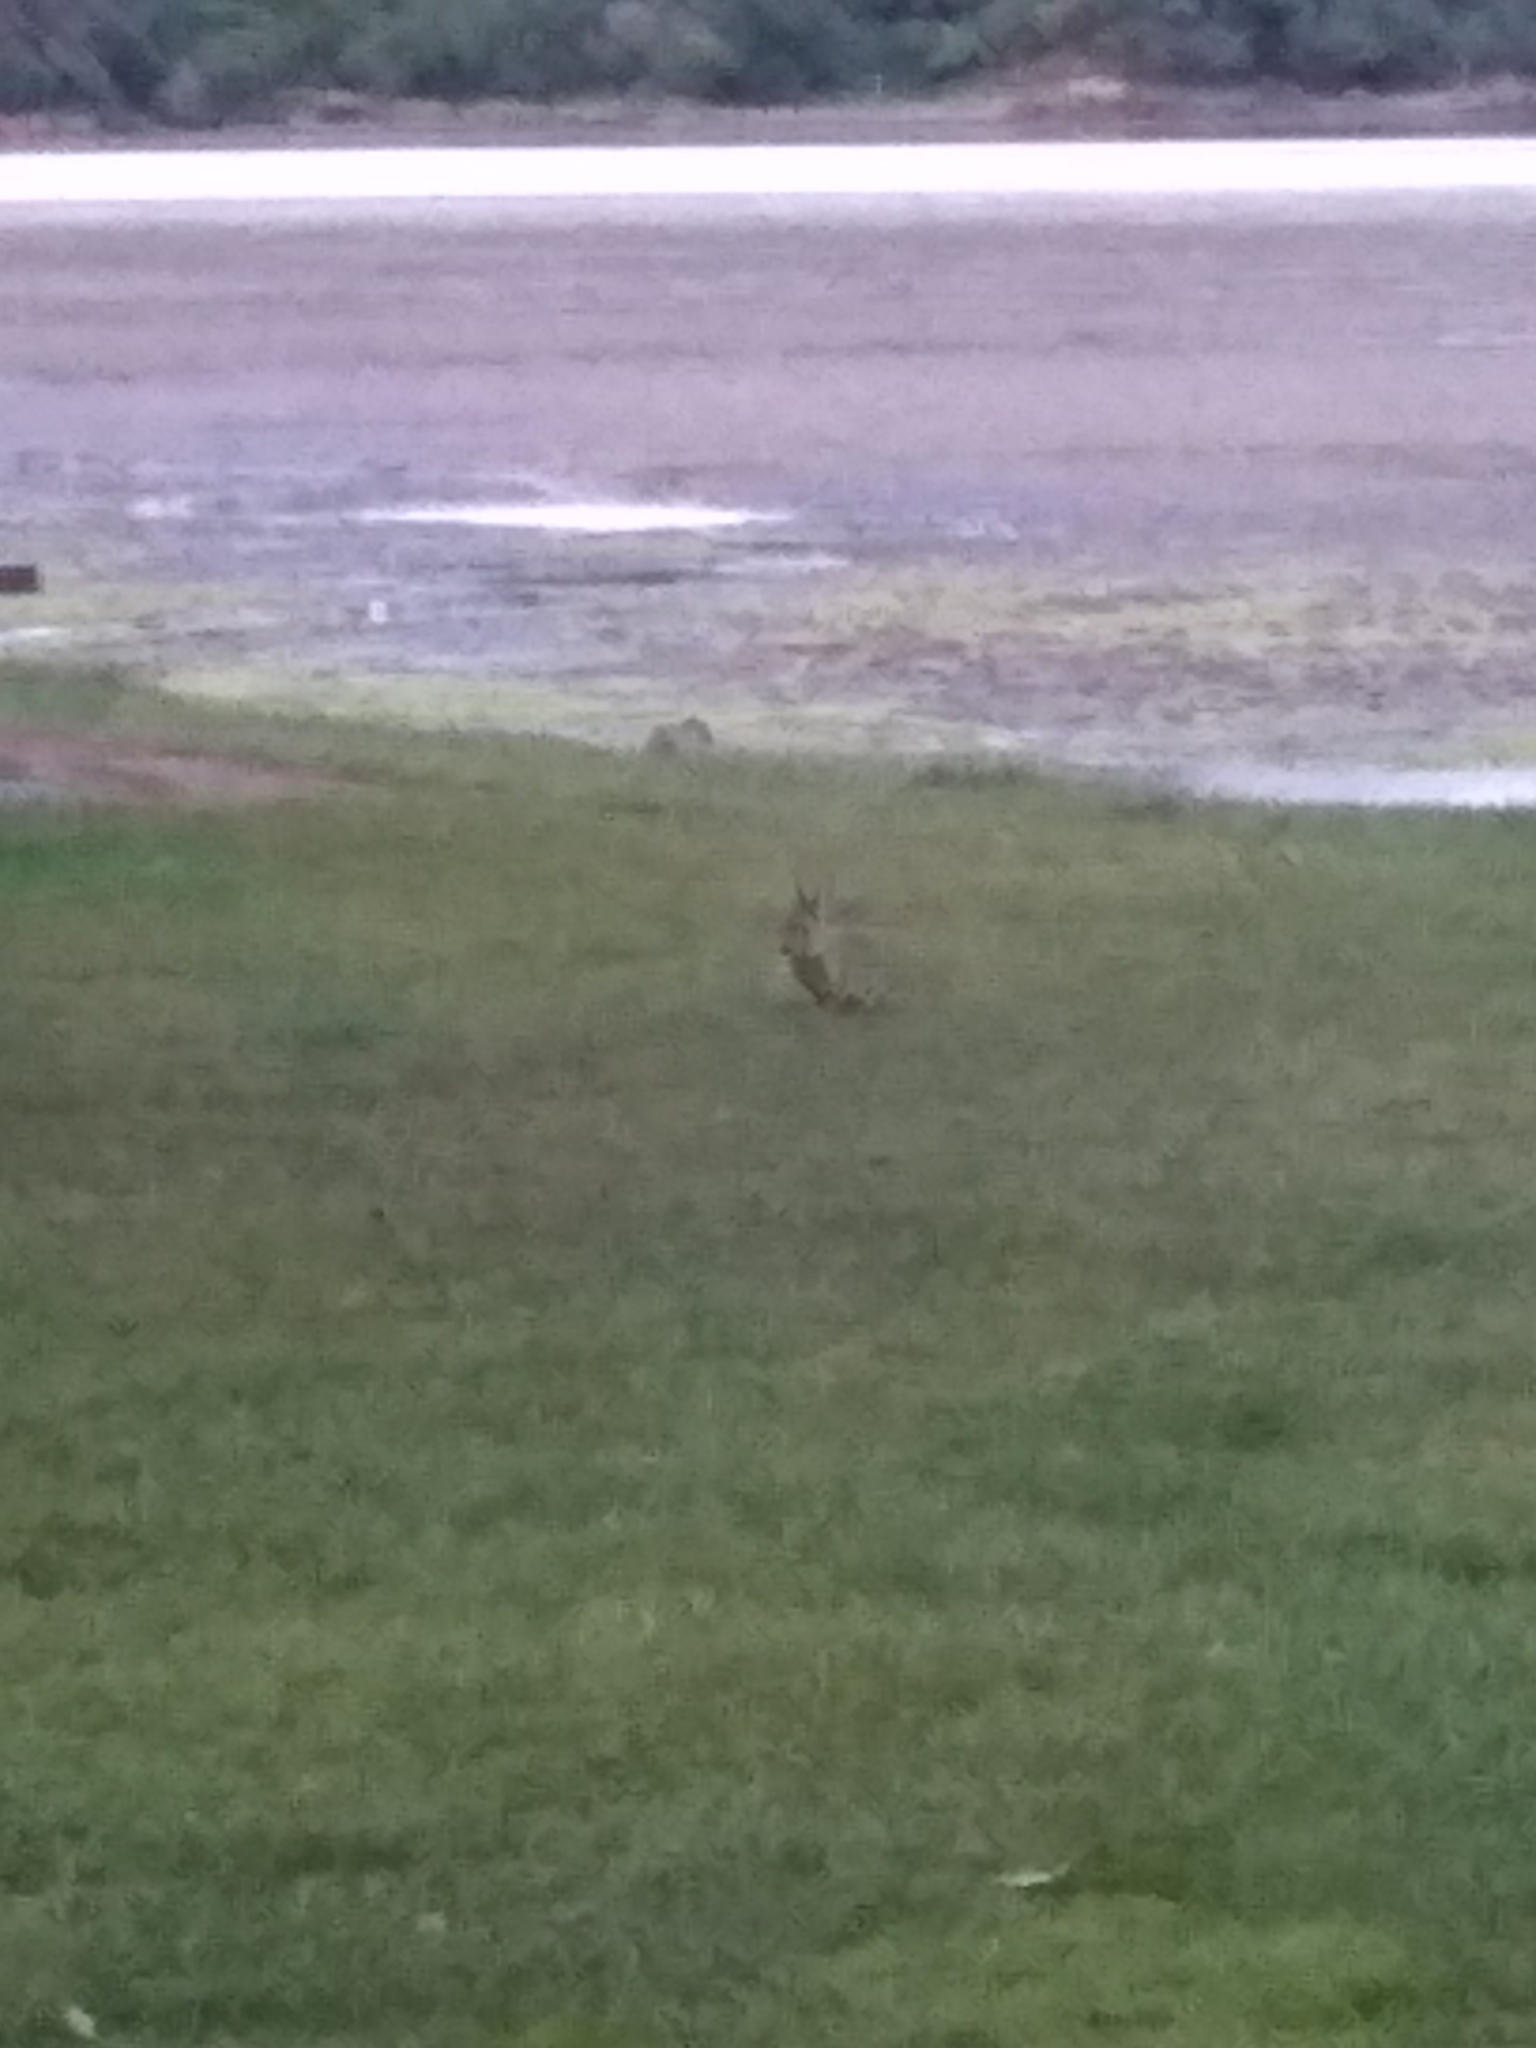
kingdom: Animalia
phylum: Chordata
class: Mammalia
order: Lagomorpha
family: Leporidae
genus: Oryctolagus
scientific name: Oryctolagus cuniculus
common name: European rabbit
